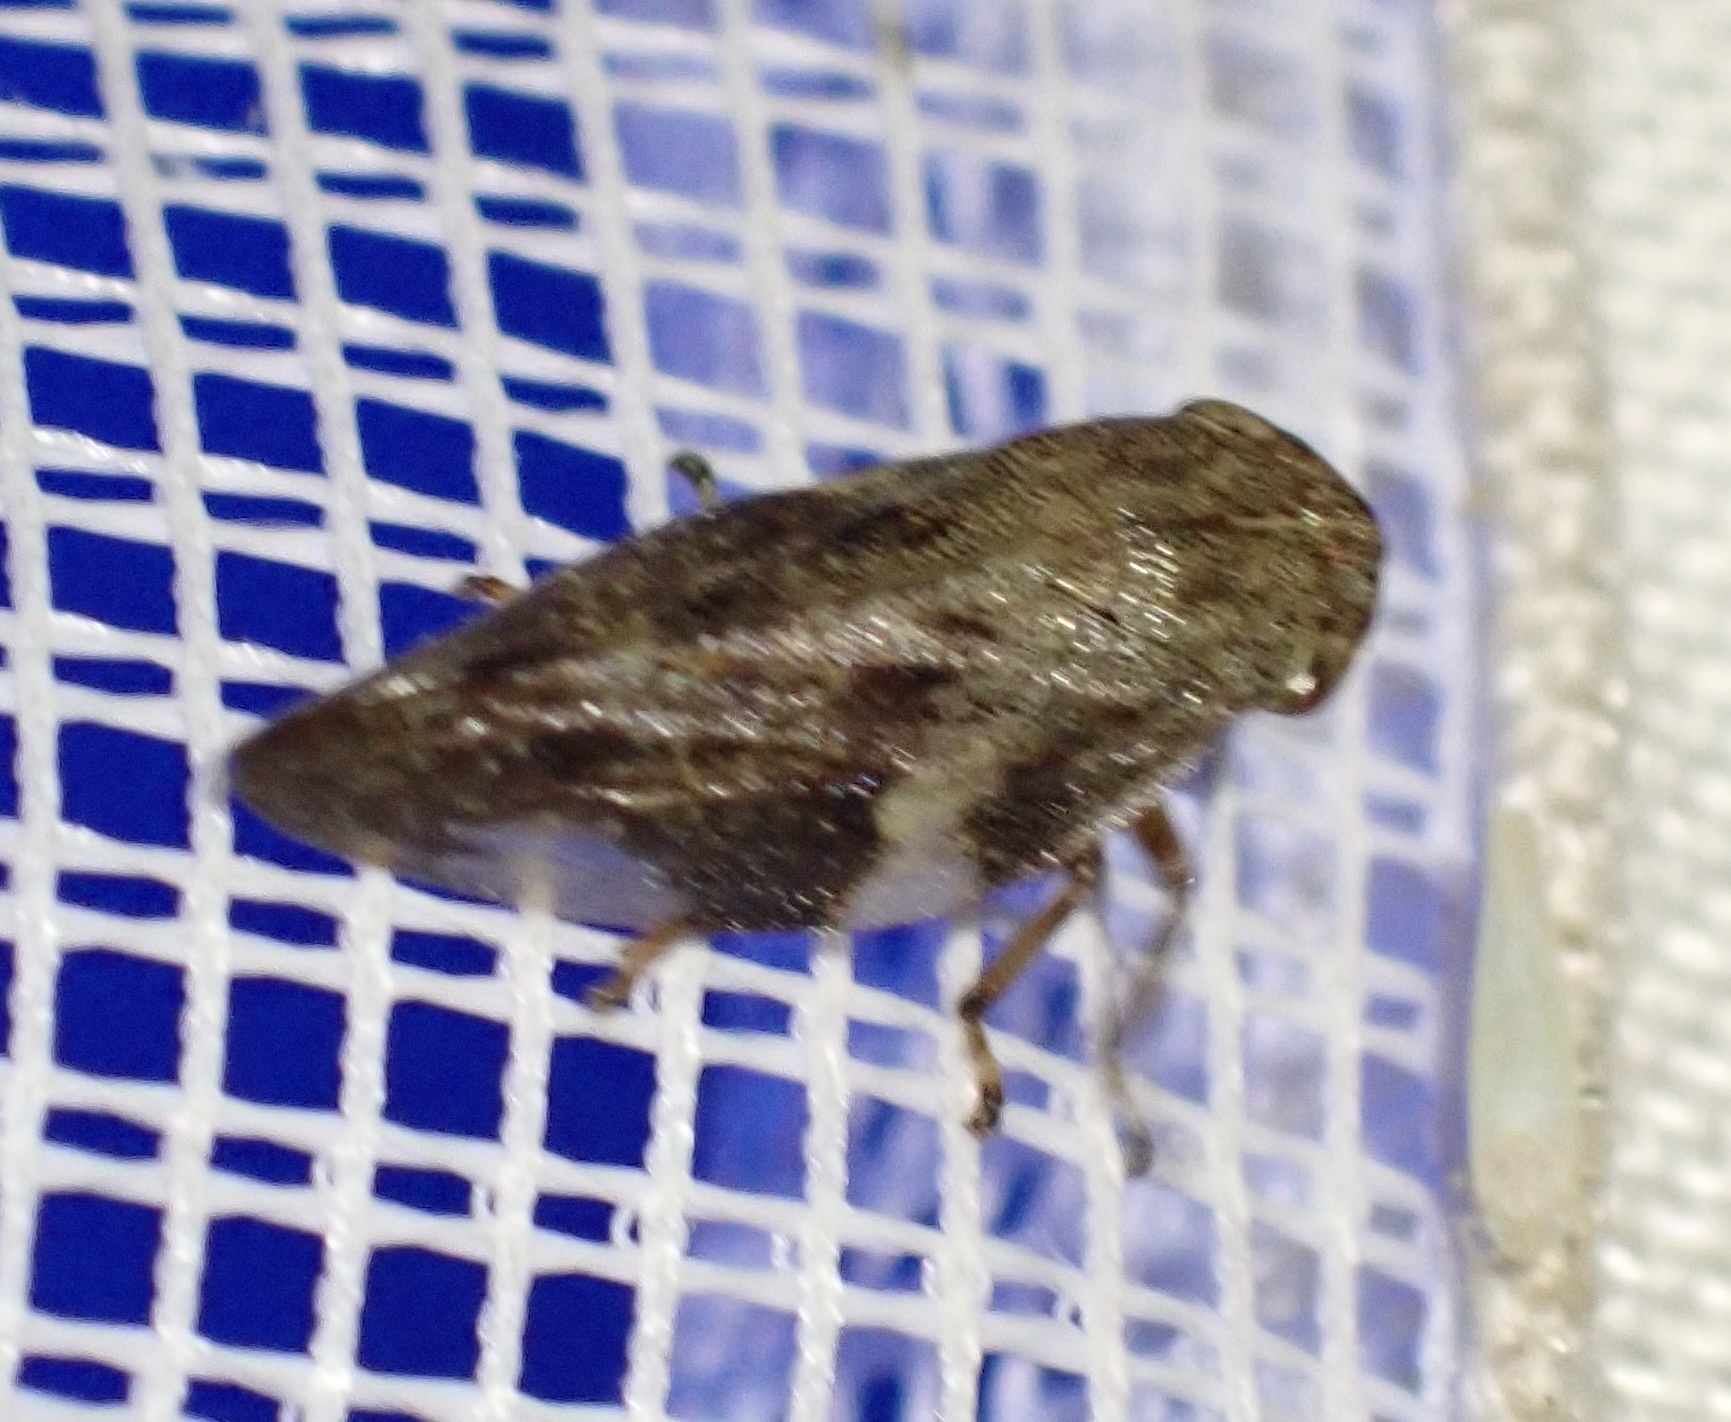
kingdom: Animalia
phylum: Arthropoda
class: Insecta
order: Hemiptera
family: Aphrophoridae
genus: Aphrophora
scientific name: Aphrophora alni
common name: European alder spittlebug
